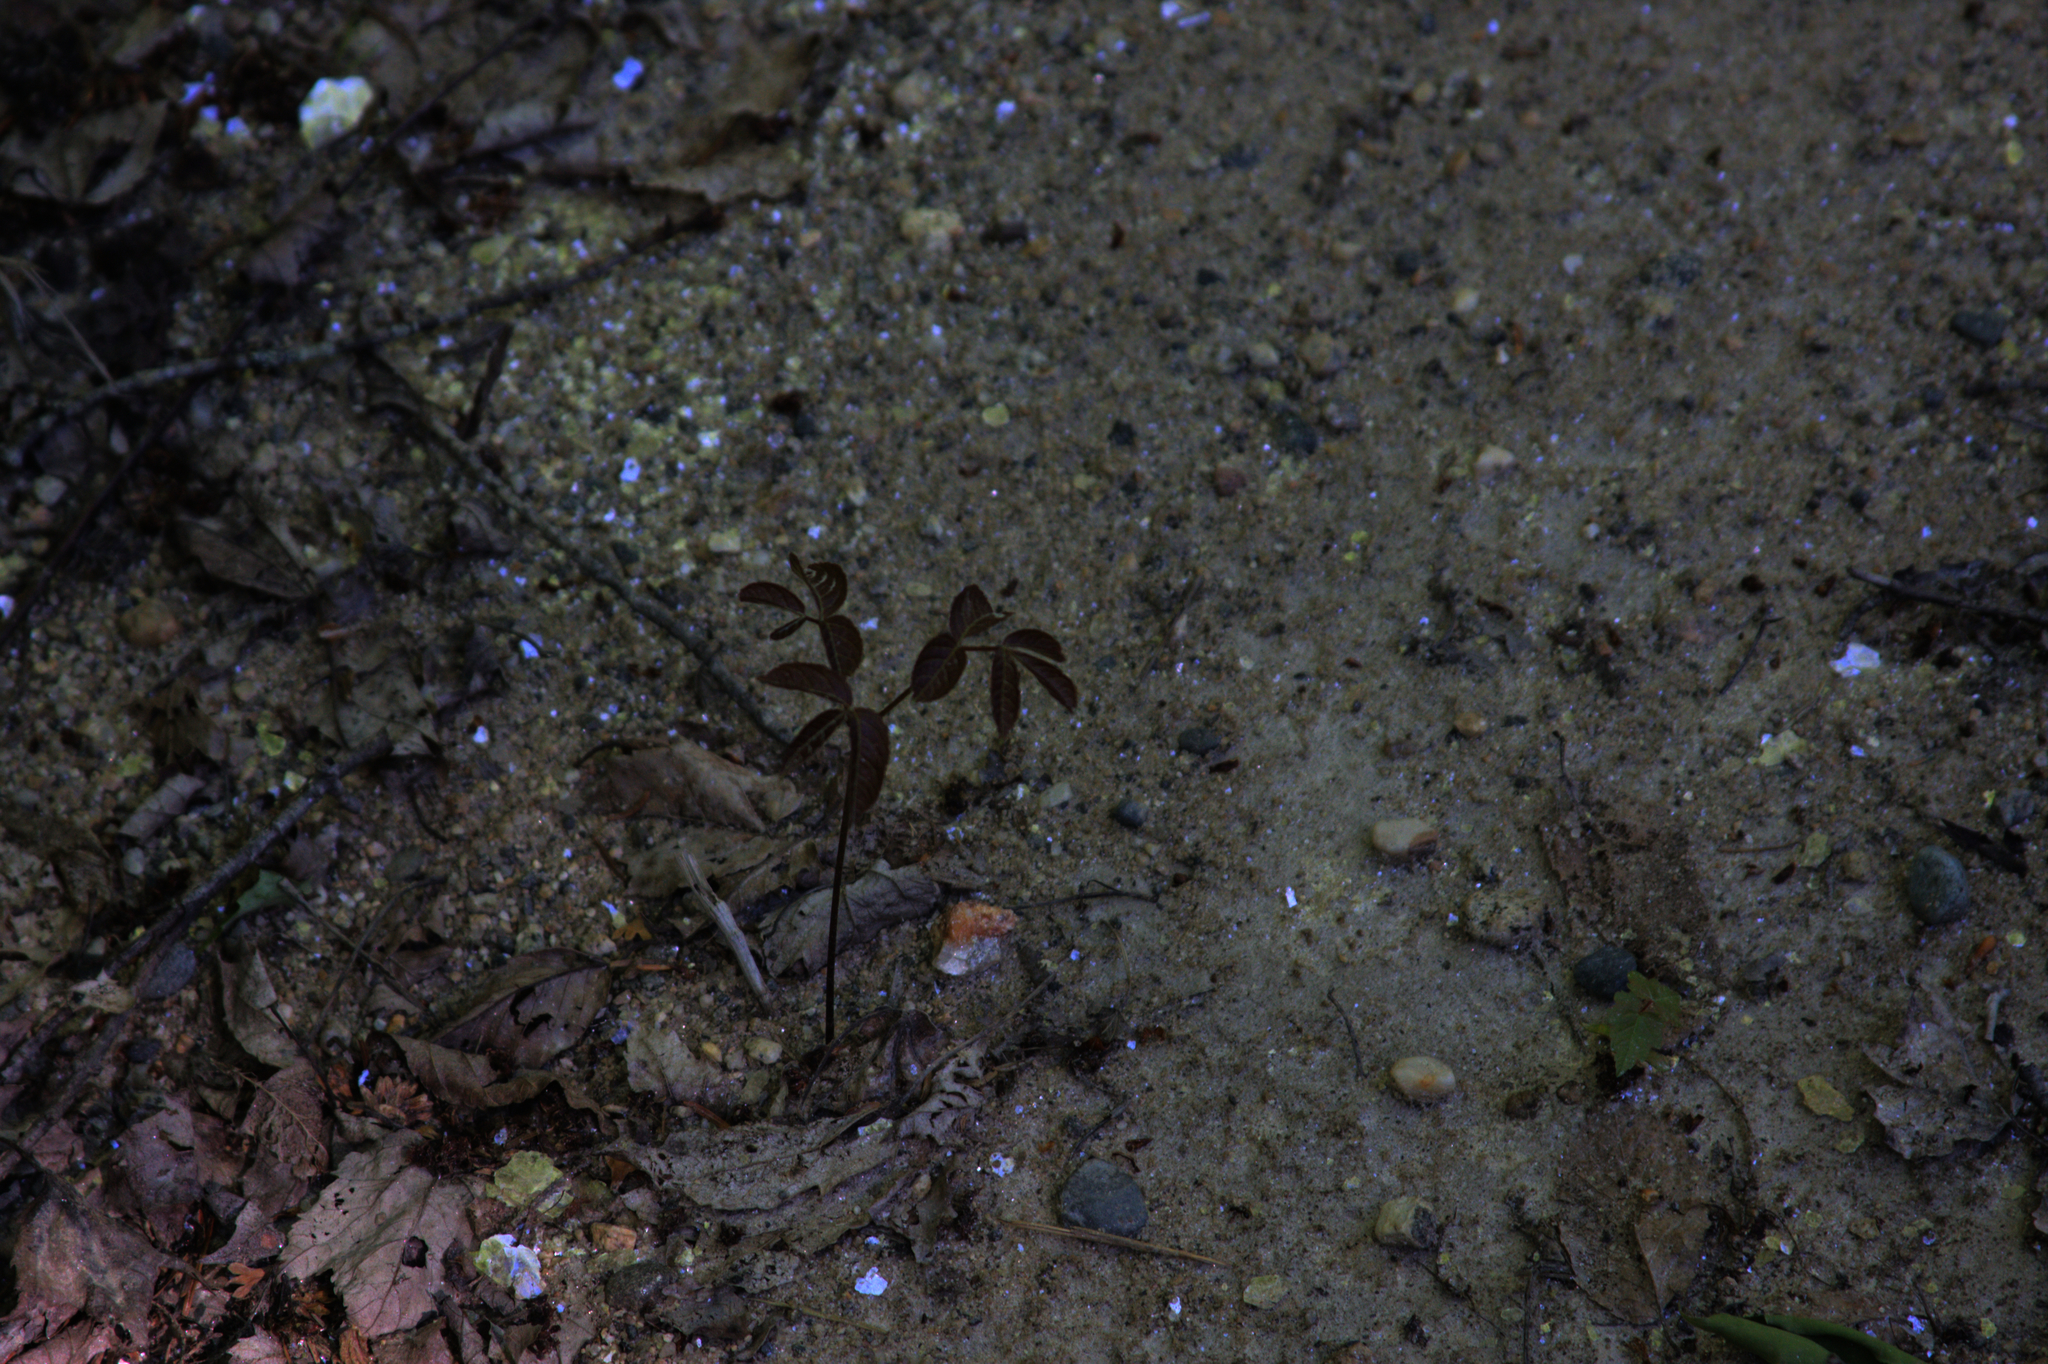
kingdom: Plantae
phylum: Tracheophyta
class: Magnoliopsida
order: Apiales
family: Araliaceae
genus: Aralia
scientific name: Aralia nudicaulis
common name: Wild sarsaparilla
